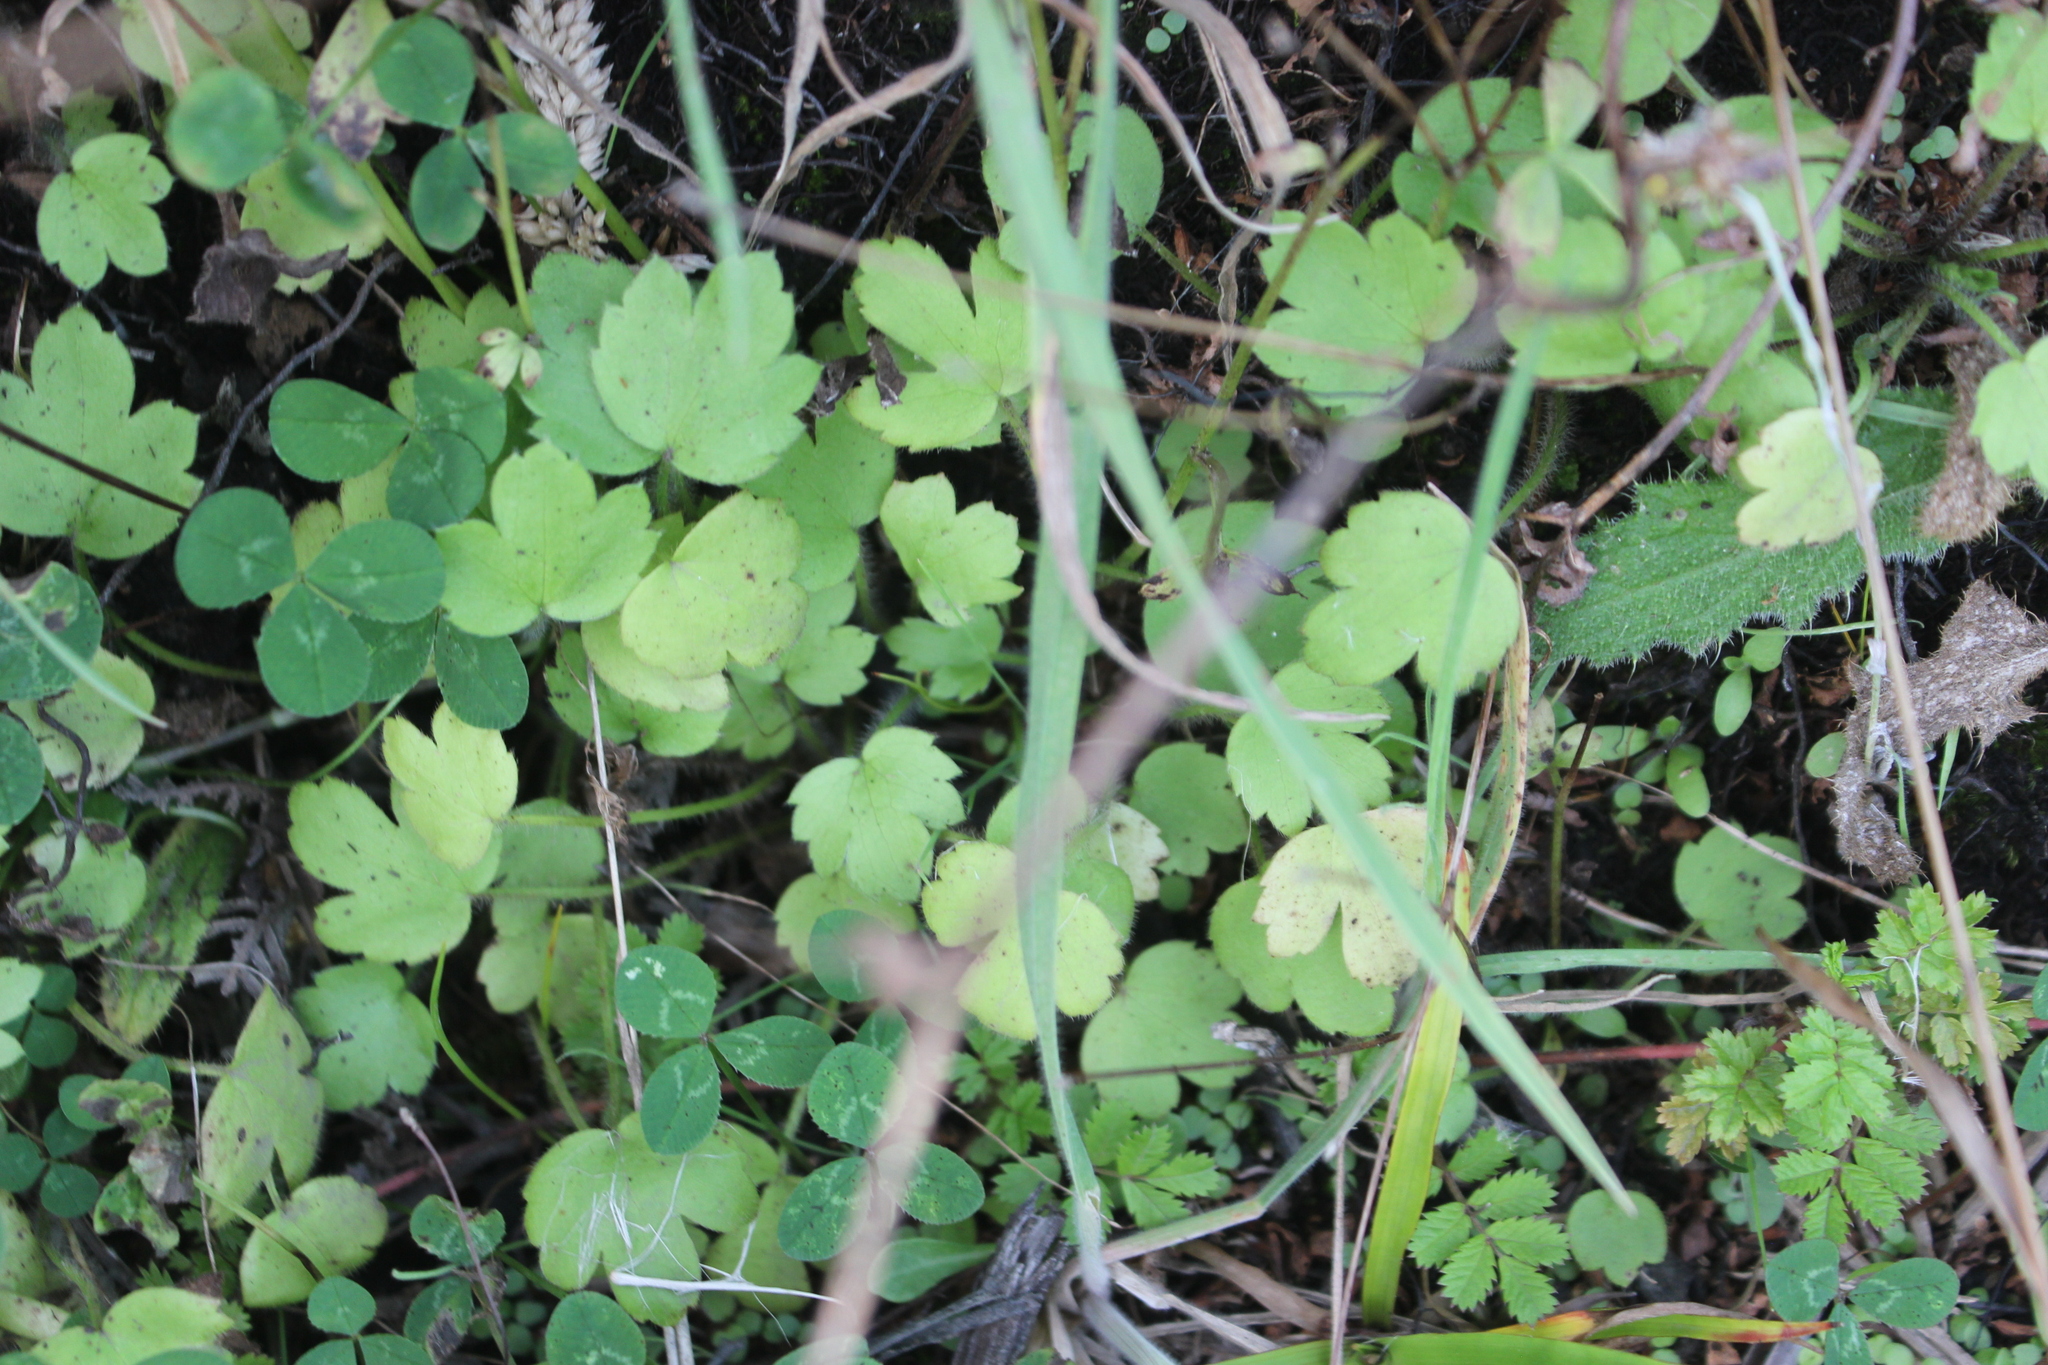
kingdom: Plantae
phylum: Tracheophyta
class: Magnoliopsida
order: Ranunculales
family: Ranunculaceae
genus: Ranunculus
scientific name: Ranunculus reflexus
